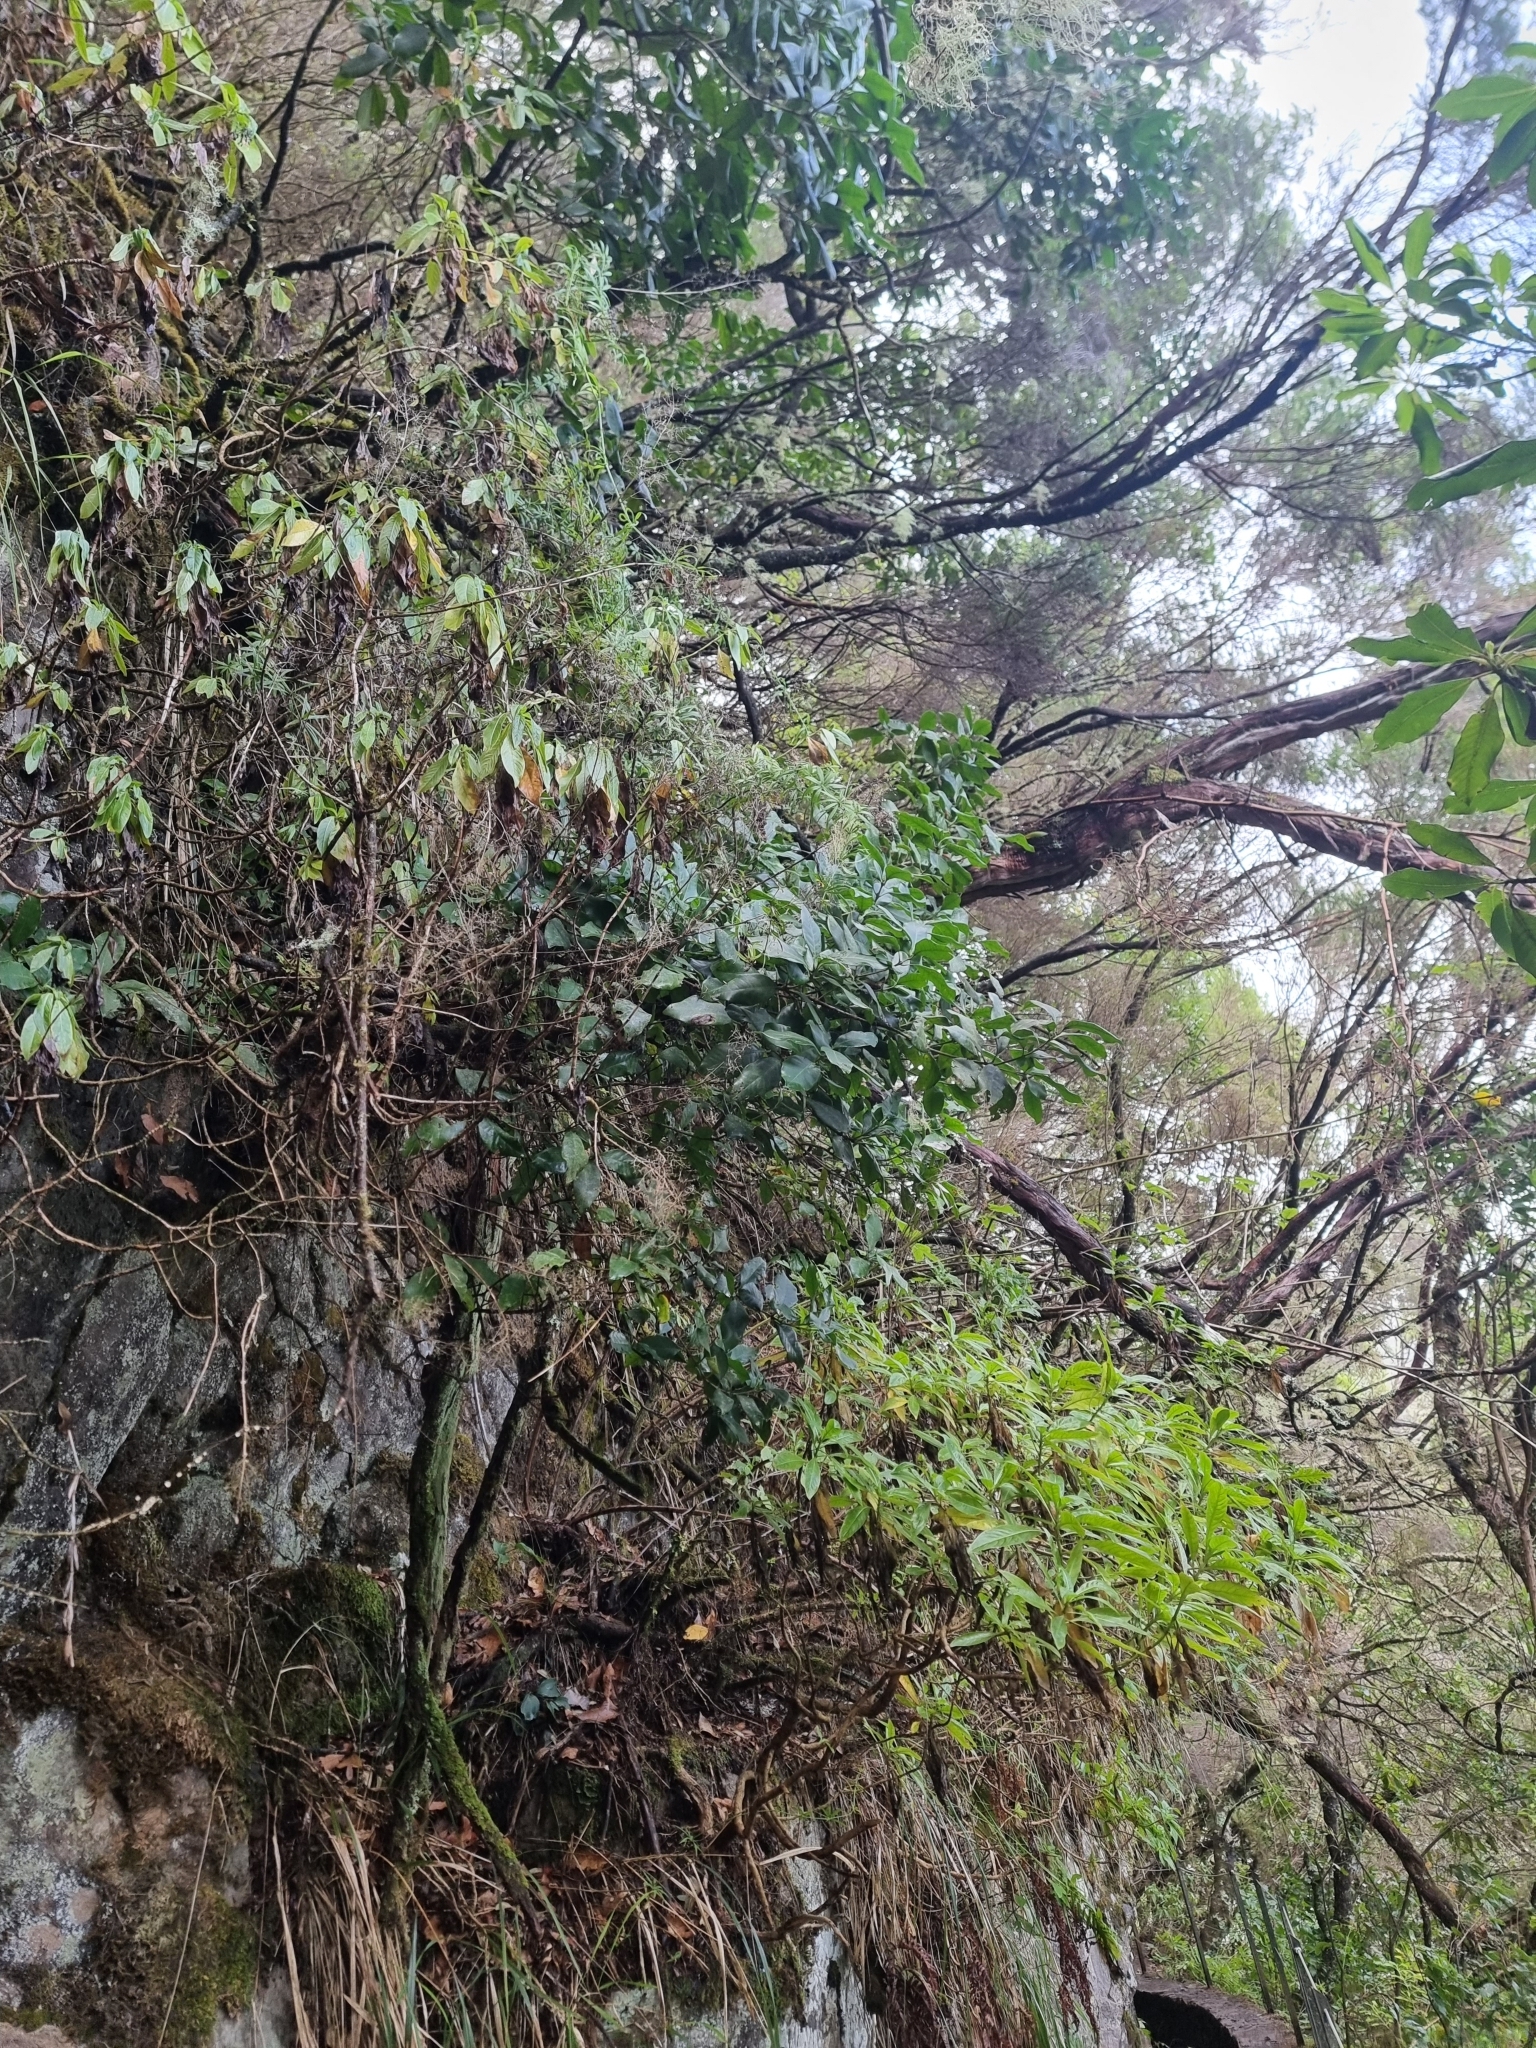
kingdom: Plantae
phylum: Tracheophyta
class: Magnoliopsida
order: Lamiales
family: Oleaceae
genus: Picconia
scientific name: Picconia excelsa
